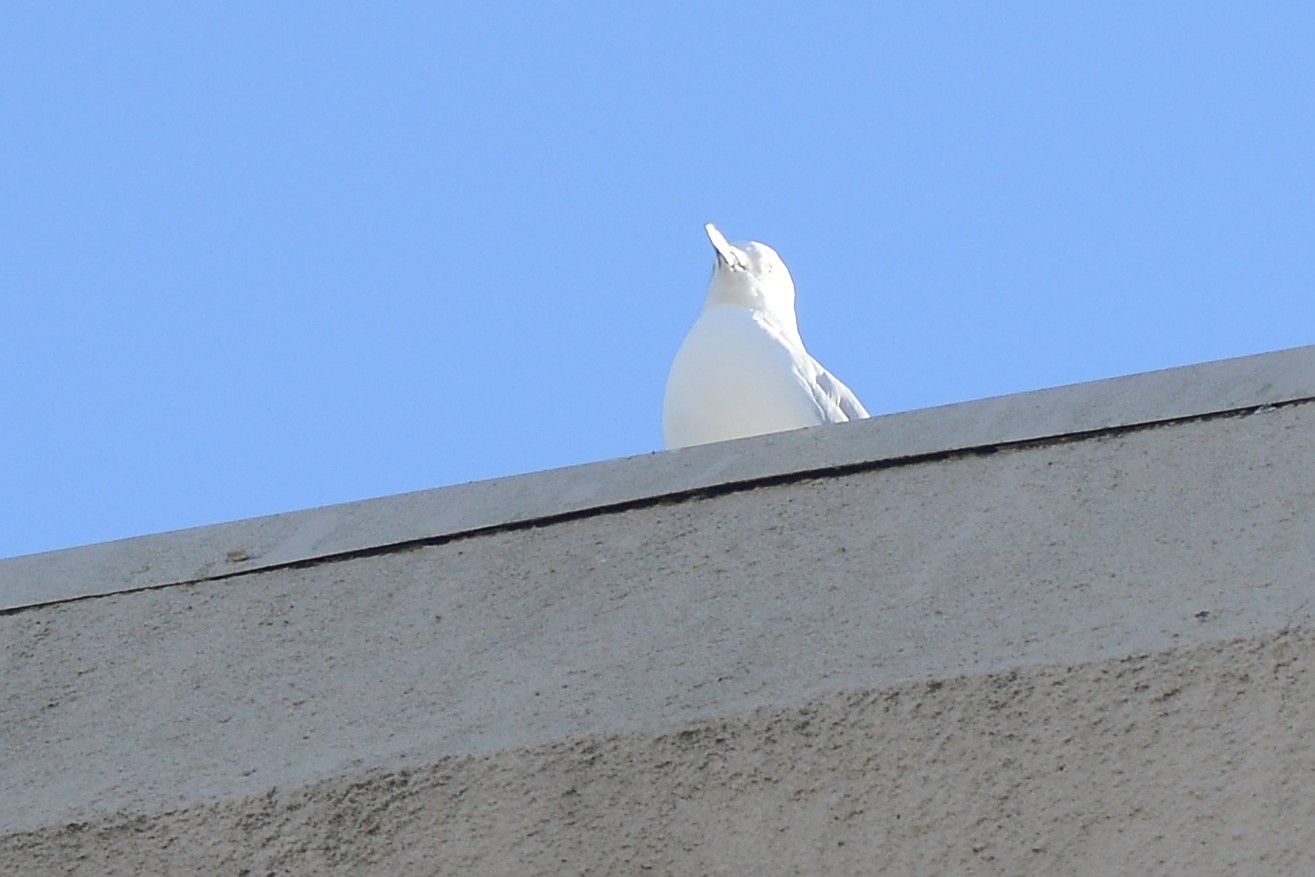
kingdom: Animalia
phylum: Chordata
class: Aves
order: Charadriiformes
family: Laridae
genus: Chroicocephalus
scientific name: Chroicocephalus novaehollandiae
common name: Silver gull
